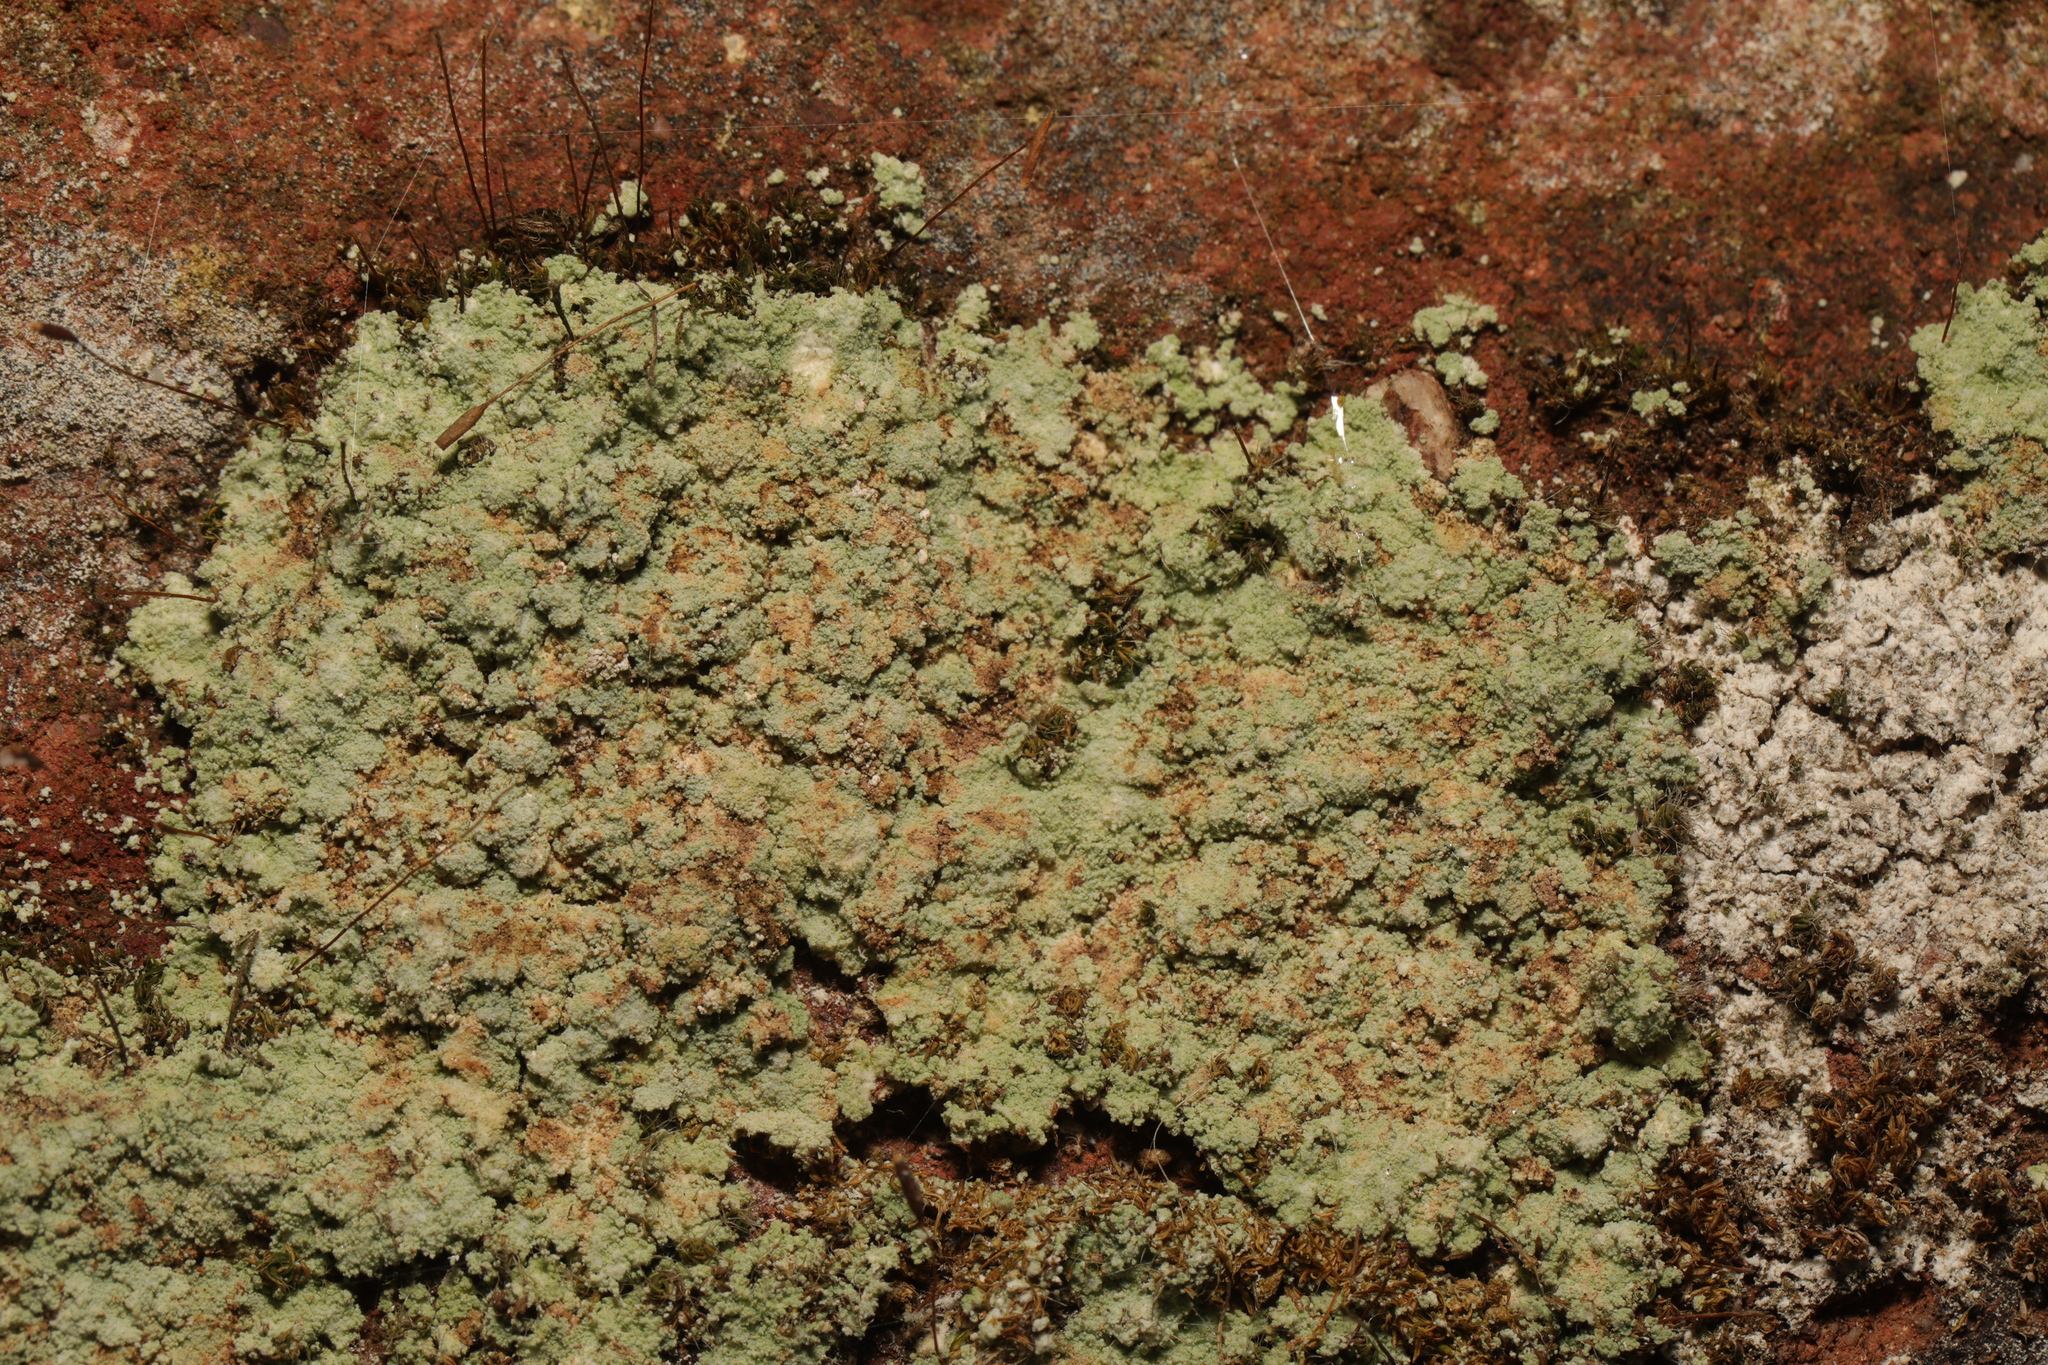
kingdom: Fungi
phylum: Ascomycota
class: Lecanoromycetes
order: Lecanorales
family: Stereocaulaceae
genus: Lepraria
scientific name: Lepraria
